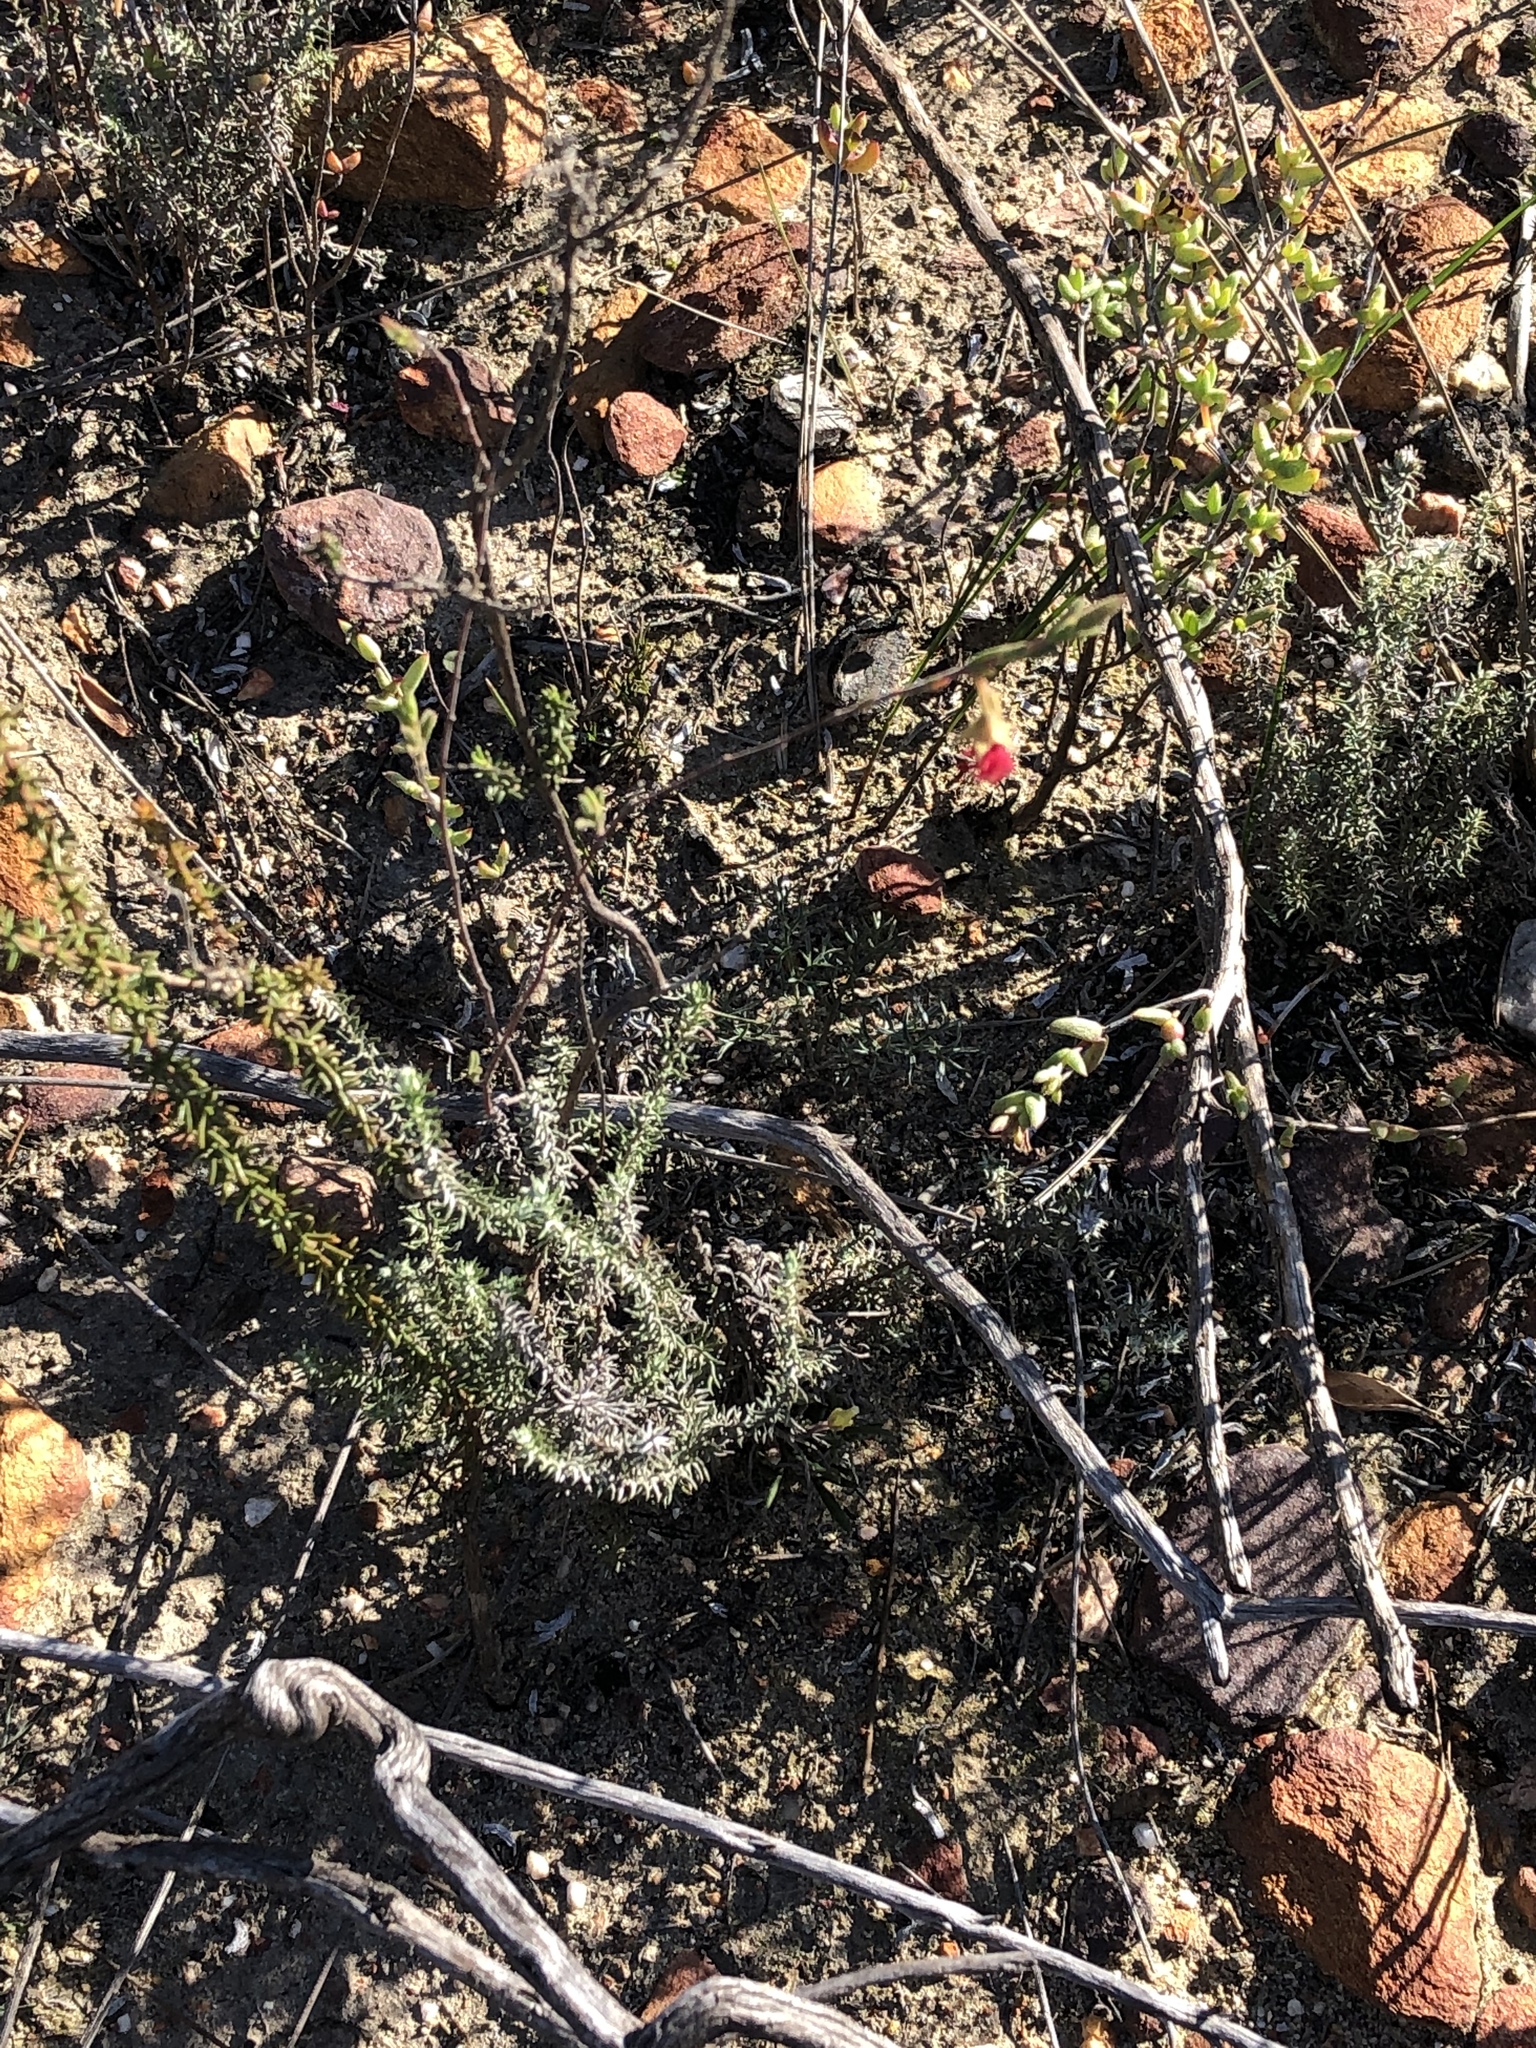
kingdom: Plantae
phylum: Tracheophyta
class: Magnoliopsida
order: Malvales
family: Malvaceae
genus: Hermannia
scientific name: Hermannia flammula
